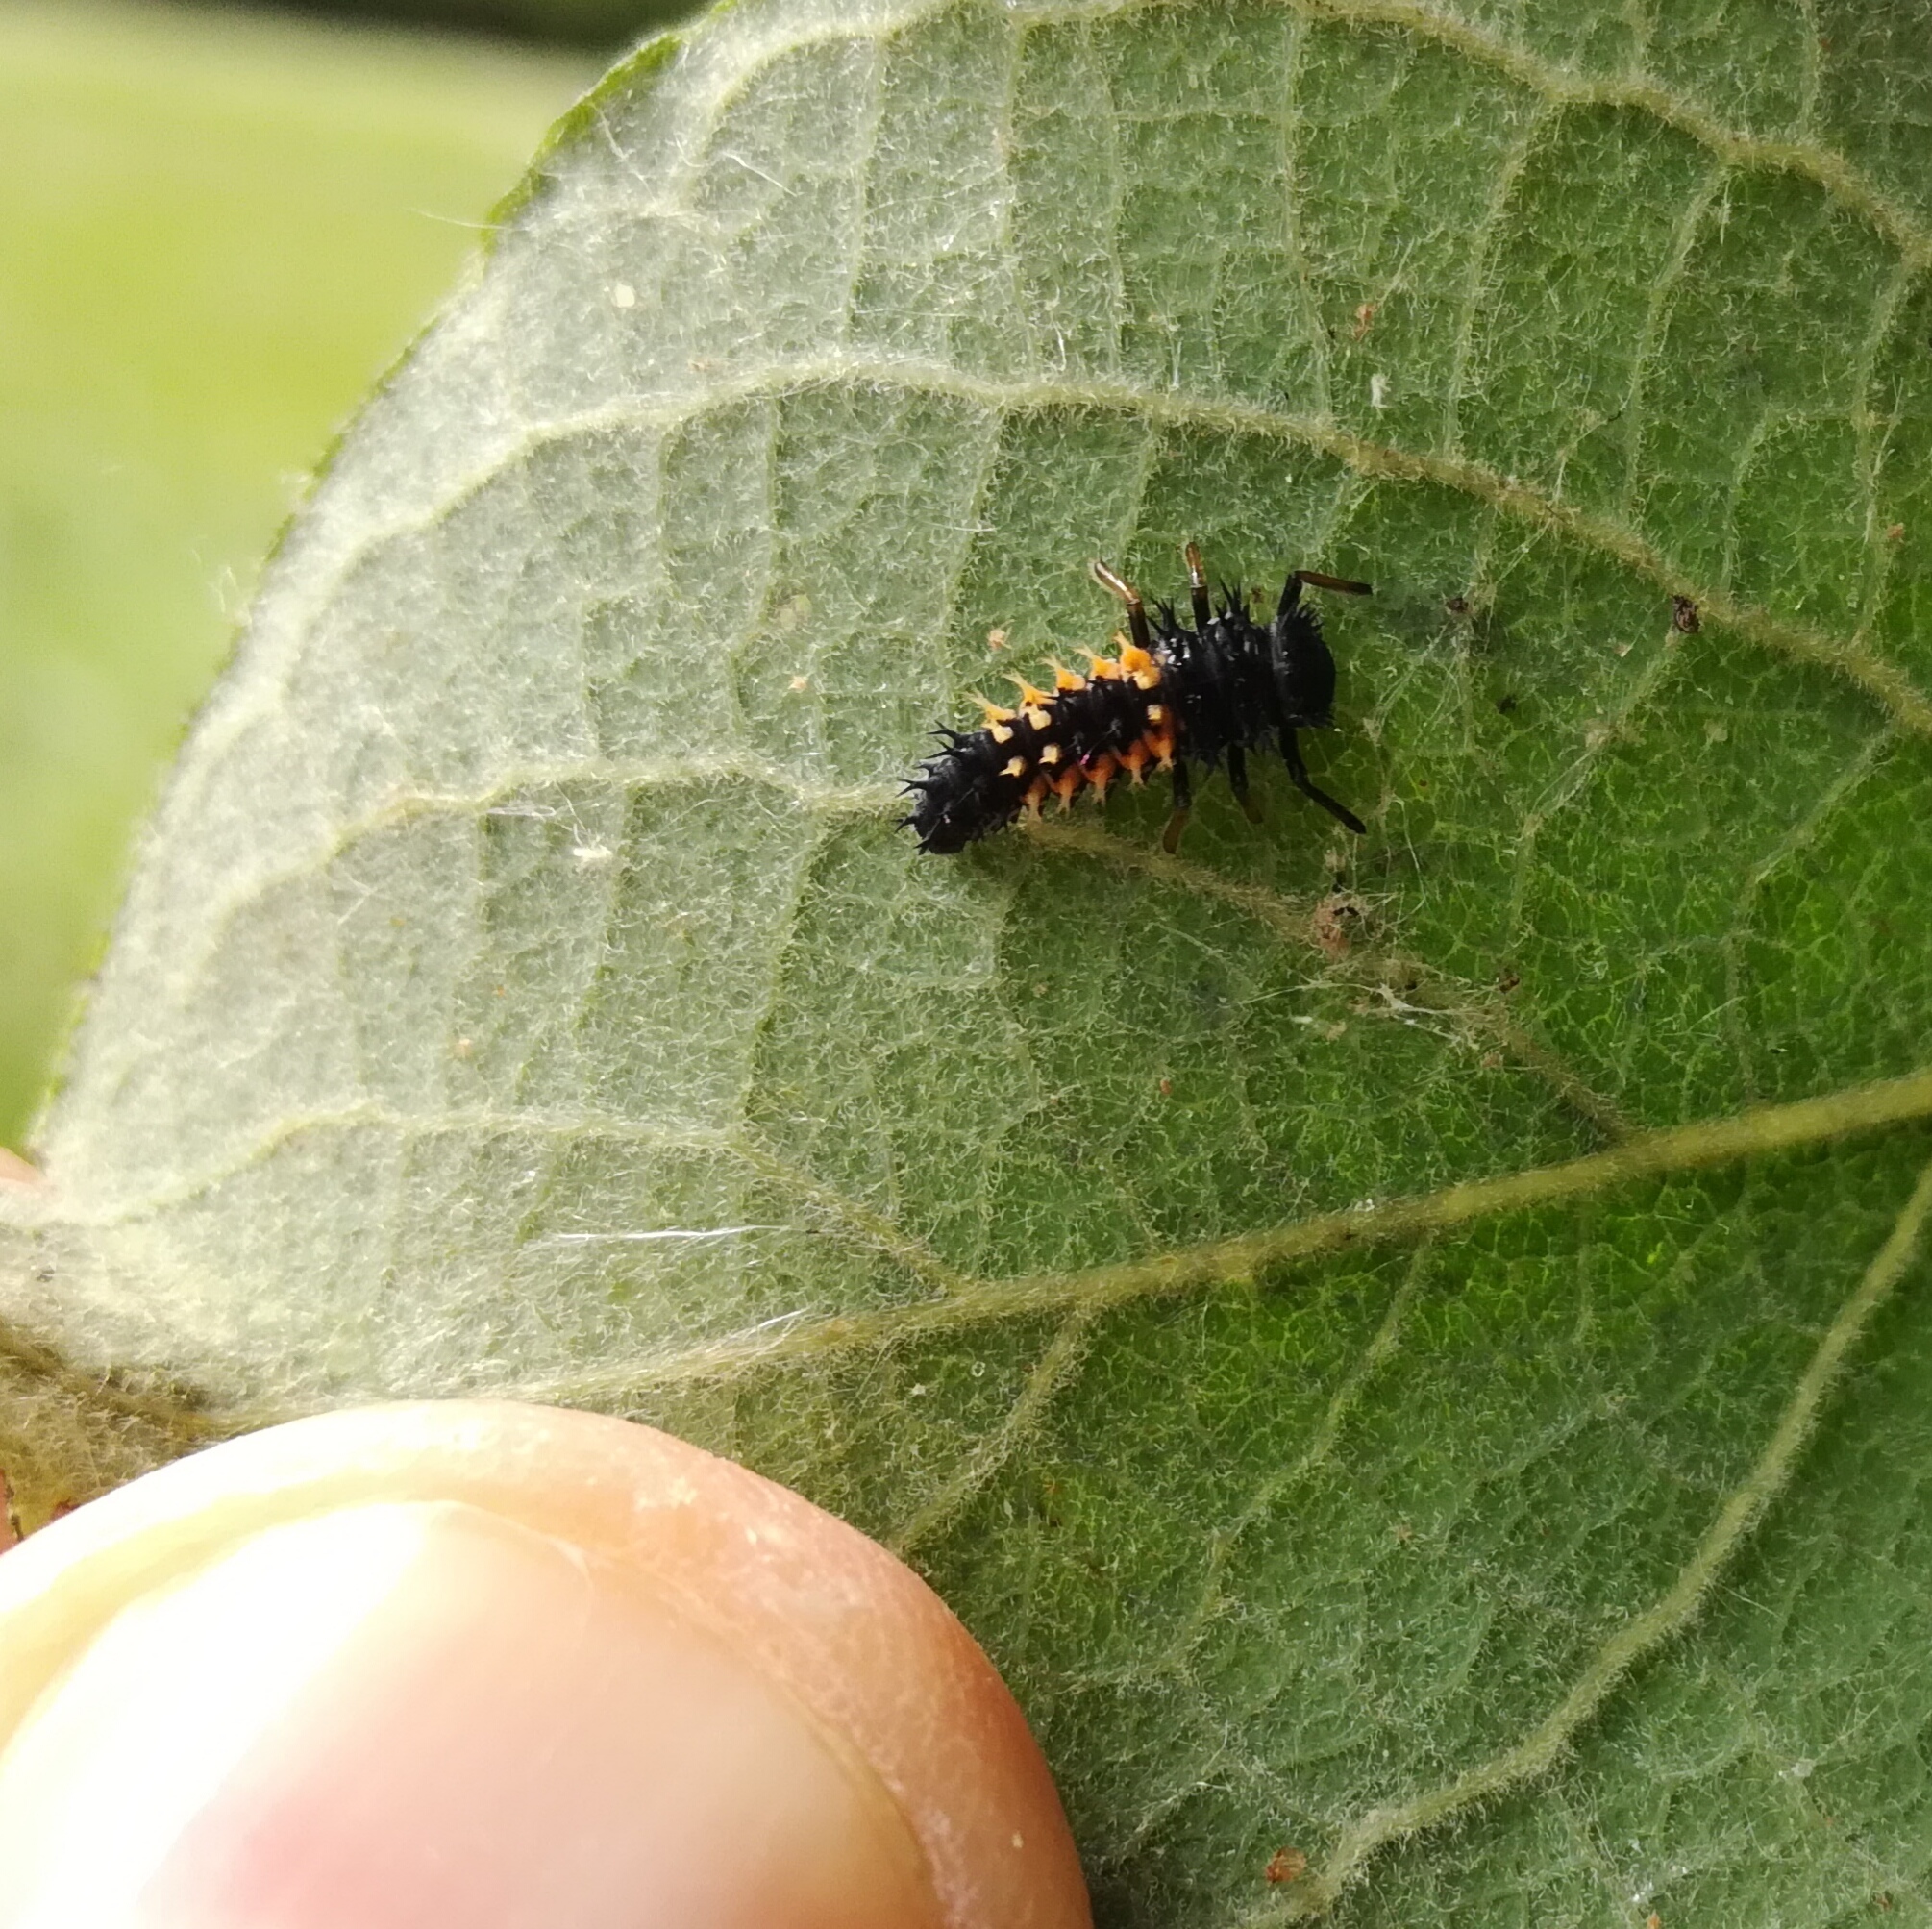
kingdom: Animalia
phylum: Arthropoda
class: Insecta
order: Coleoptera
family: Coccinellidae
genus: Harmonia
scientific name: Harmonia axyridis
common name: Harlequin ladybird
